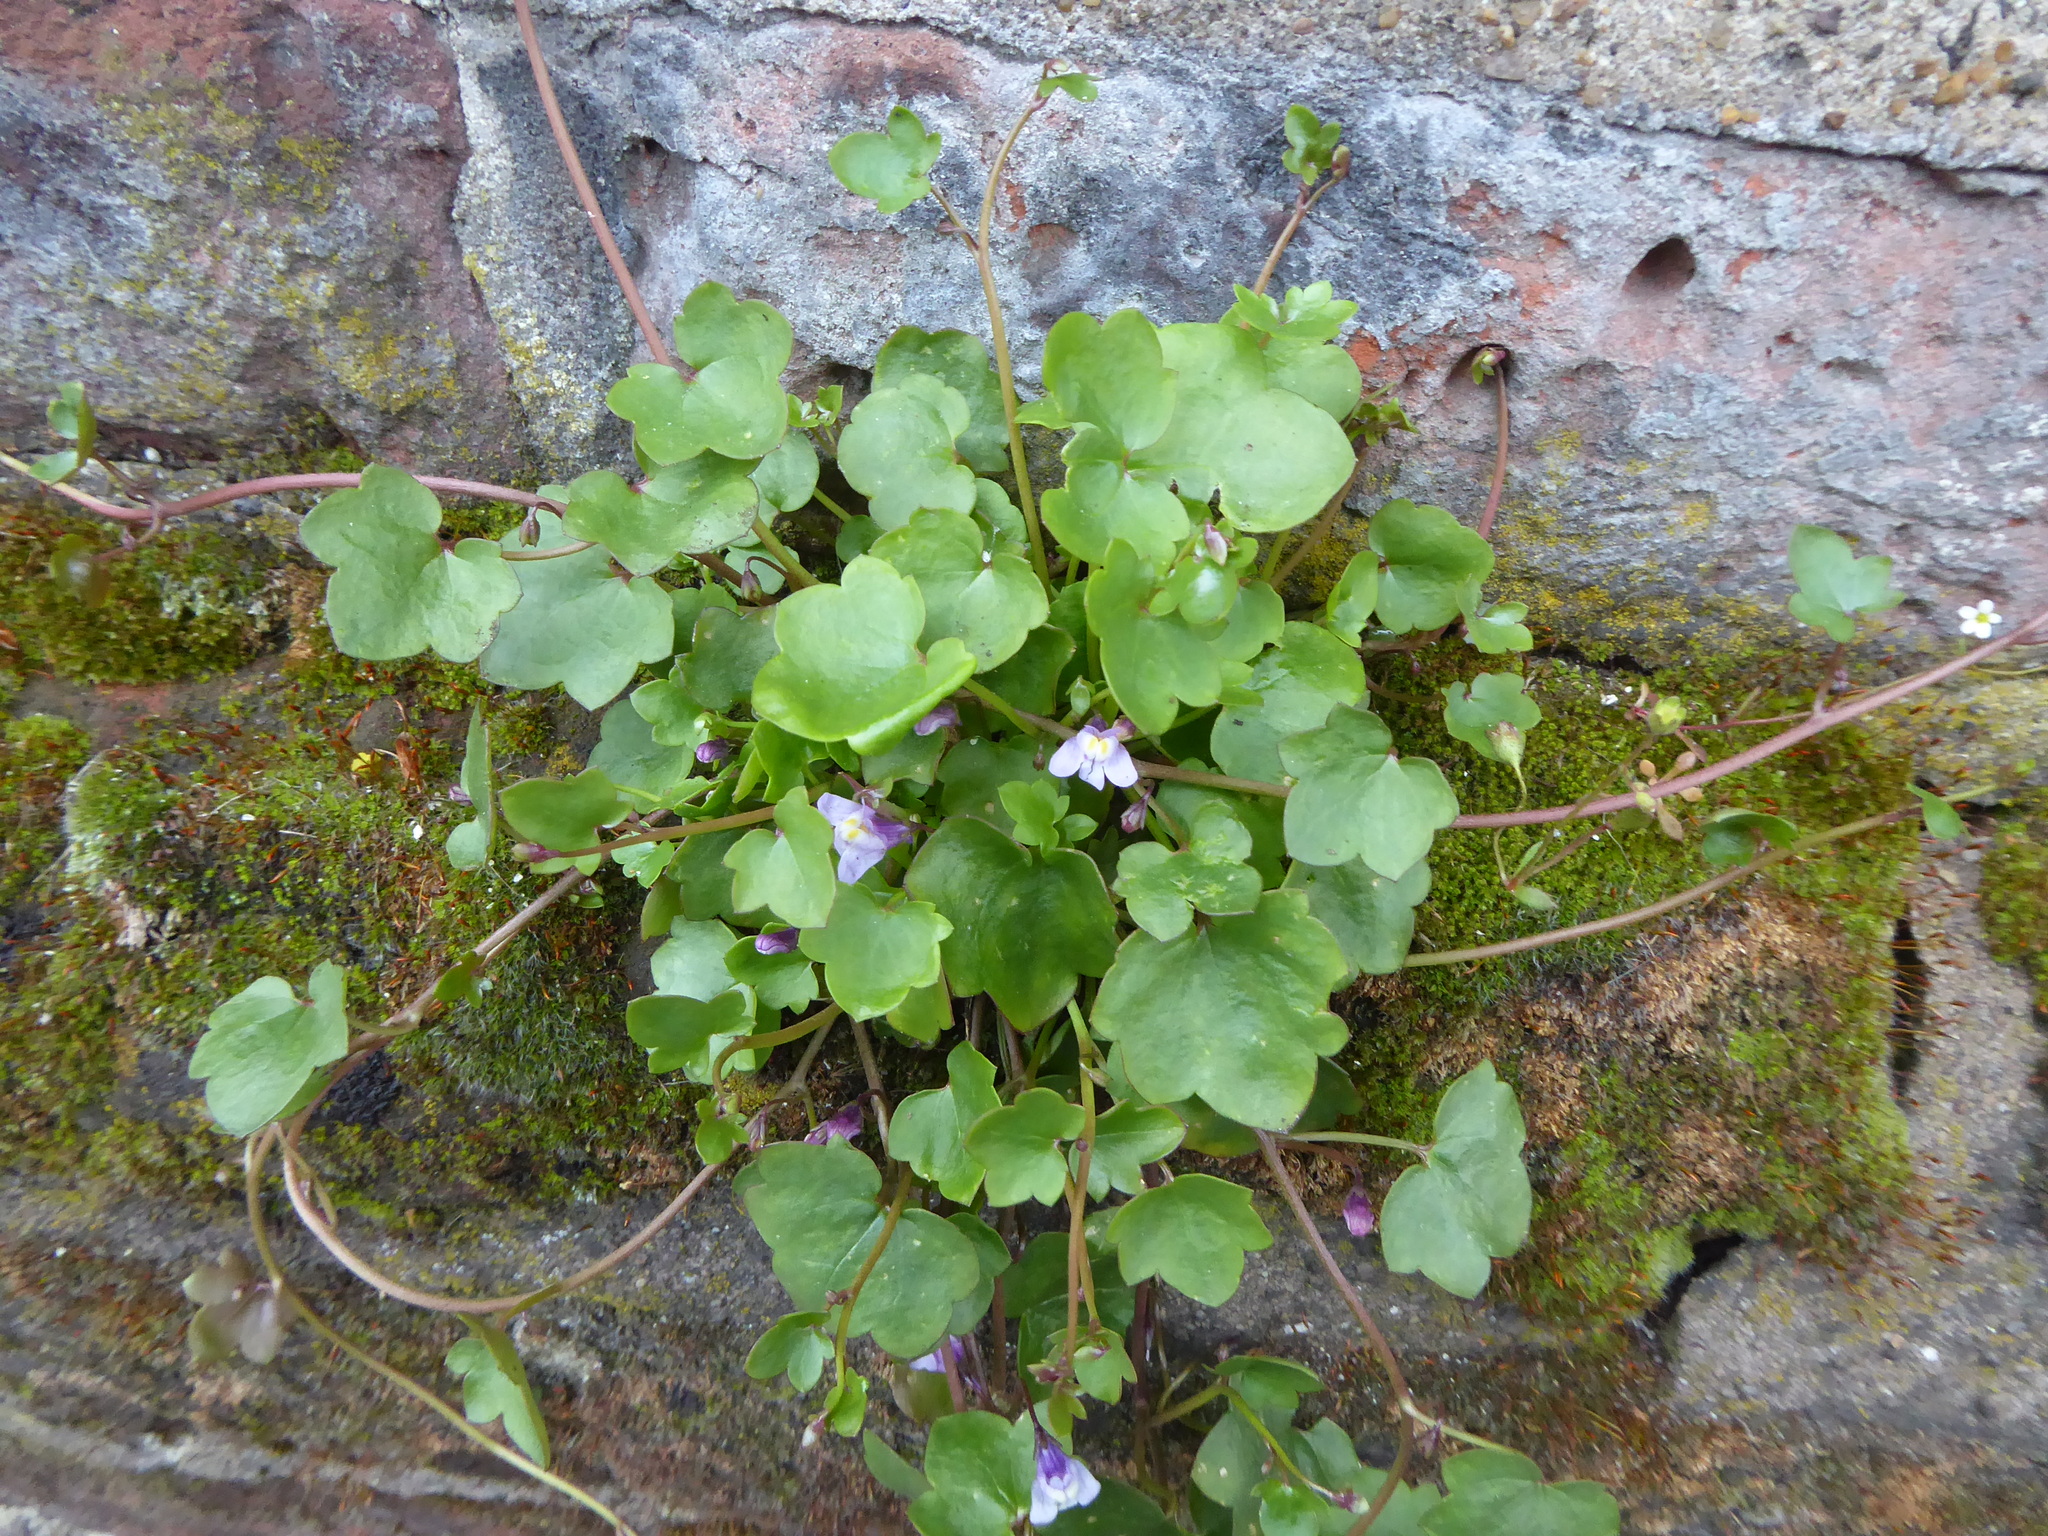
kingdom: Plantae
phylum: Tracheophyta
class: Magnoliopsida
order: Lamiales
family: Plantaginaceae
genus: Cymbalaria
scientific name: Cymbalaria muralis
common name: Ivy-leaved toadflax
